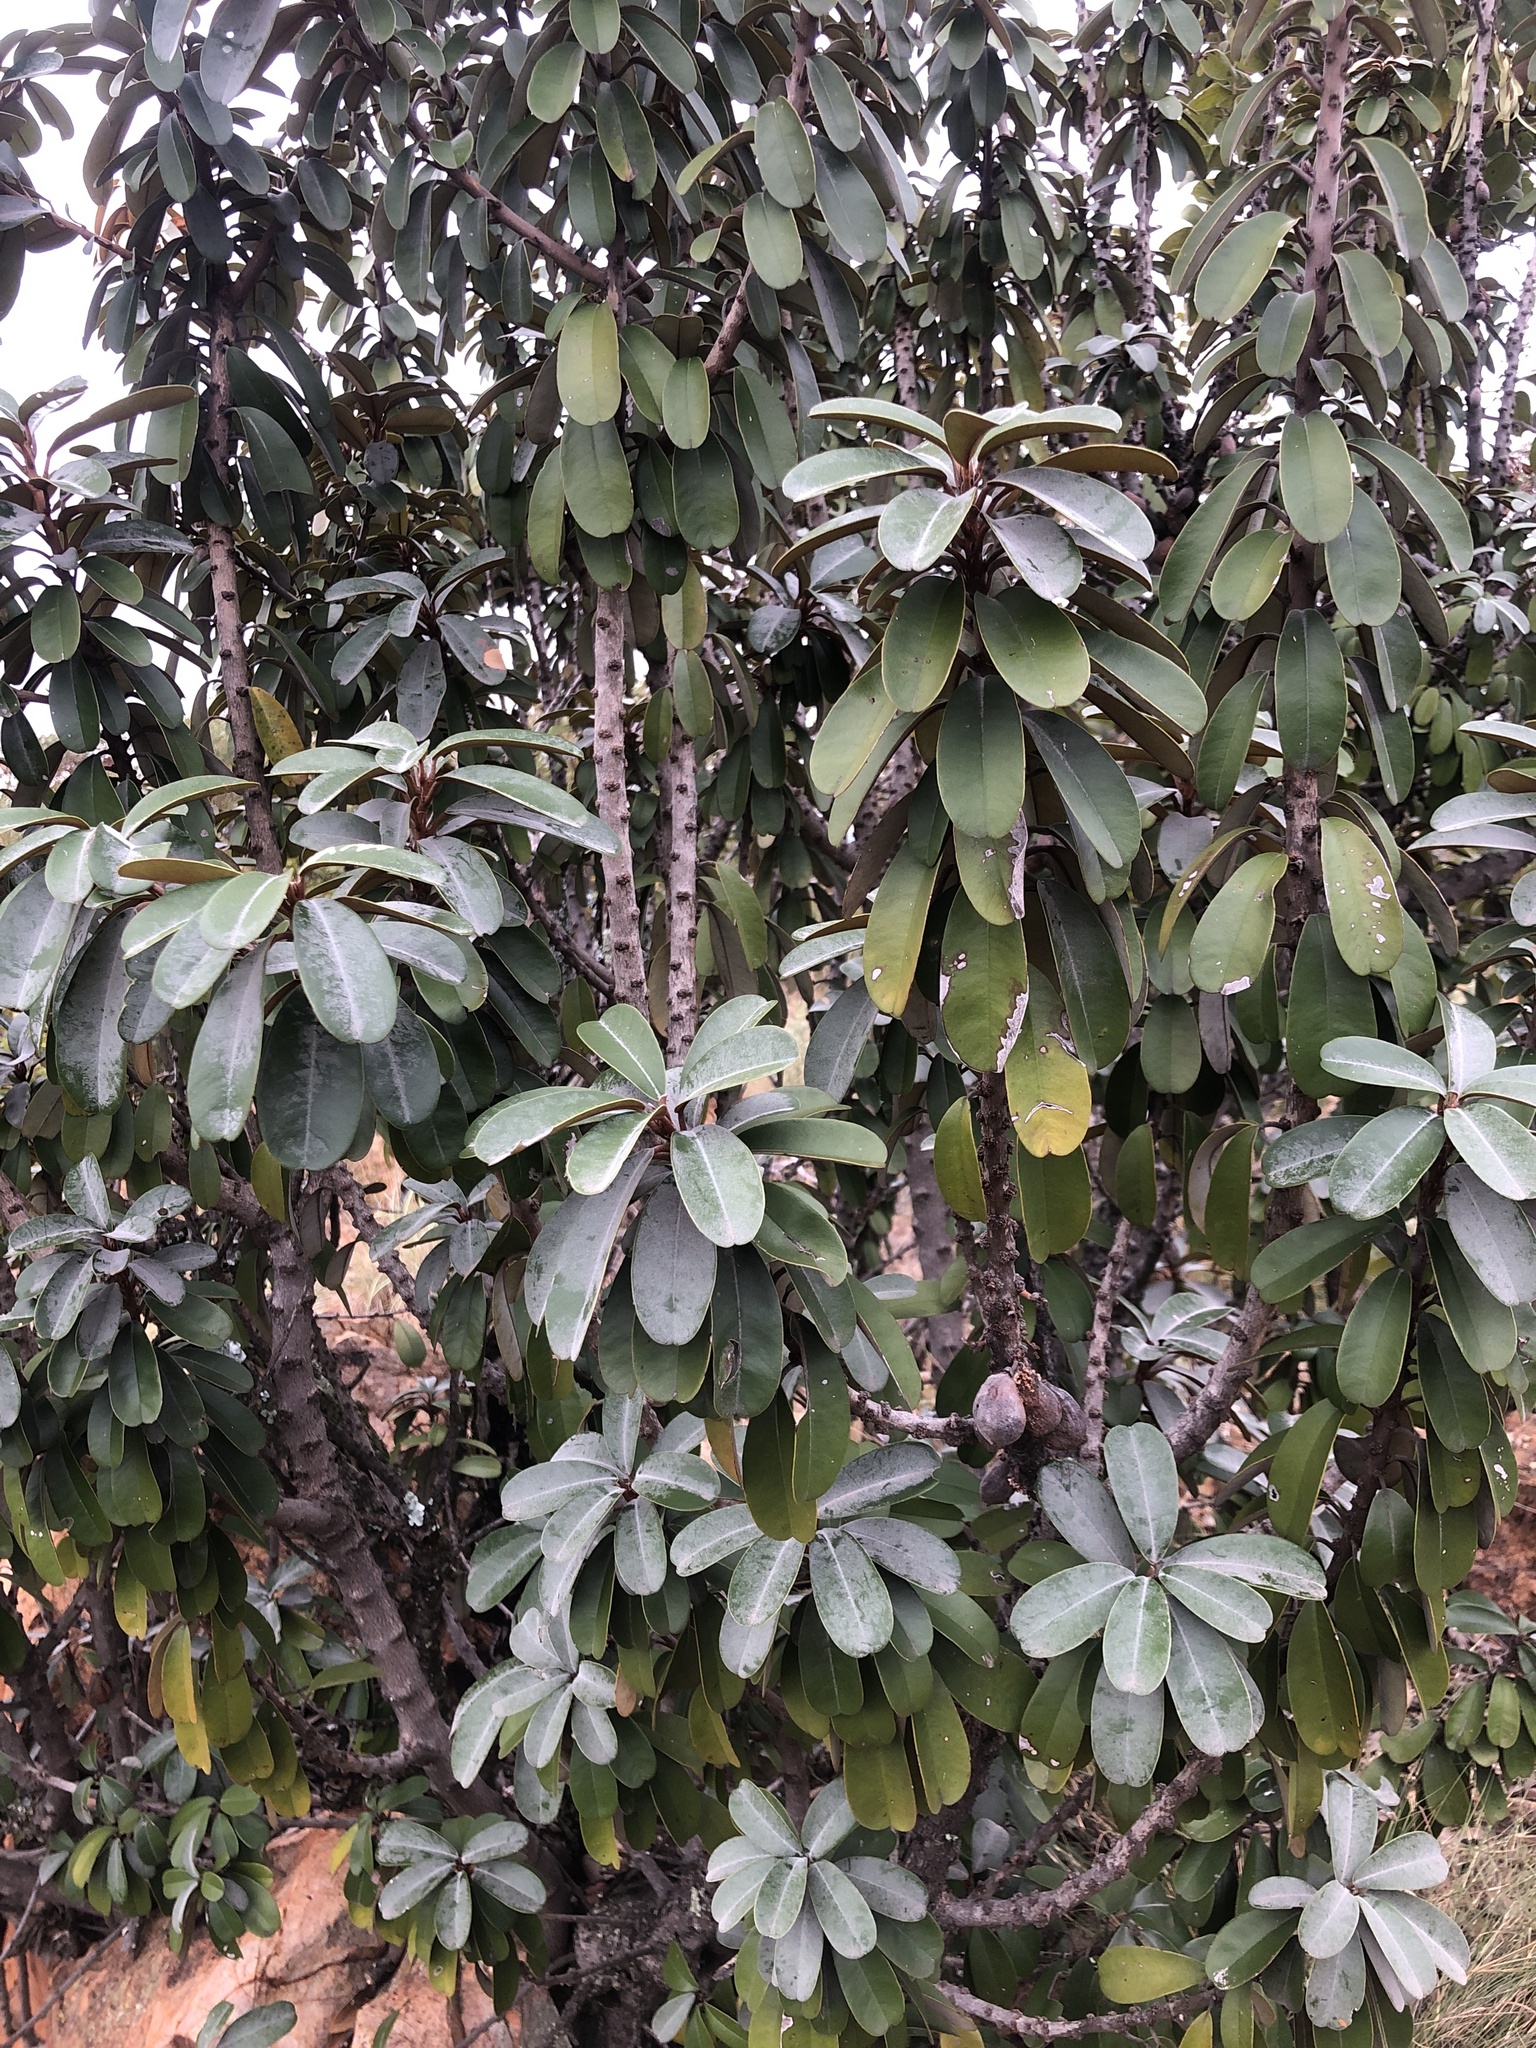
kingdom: Plantae
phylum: Tracheophyta
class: Magnoliopsida
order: Ericales
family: Sapotaceae
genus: Englerophytum
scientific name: Englerophytum magalismontanum
